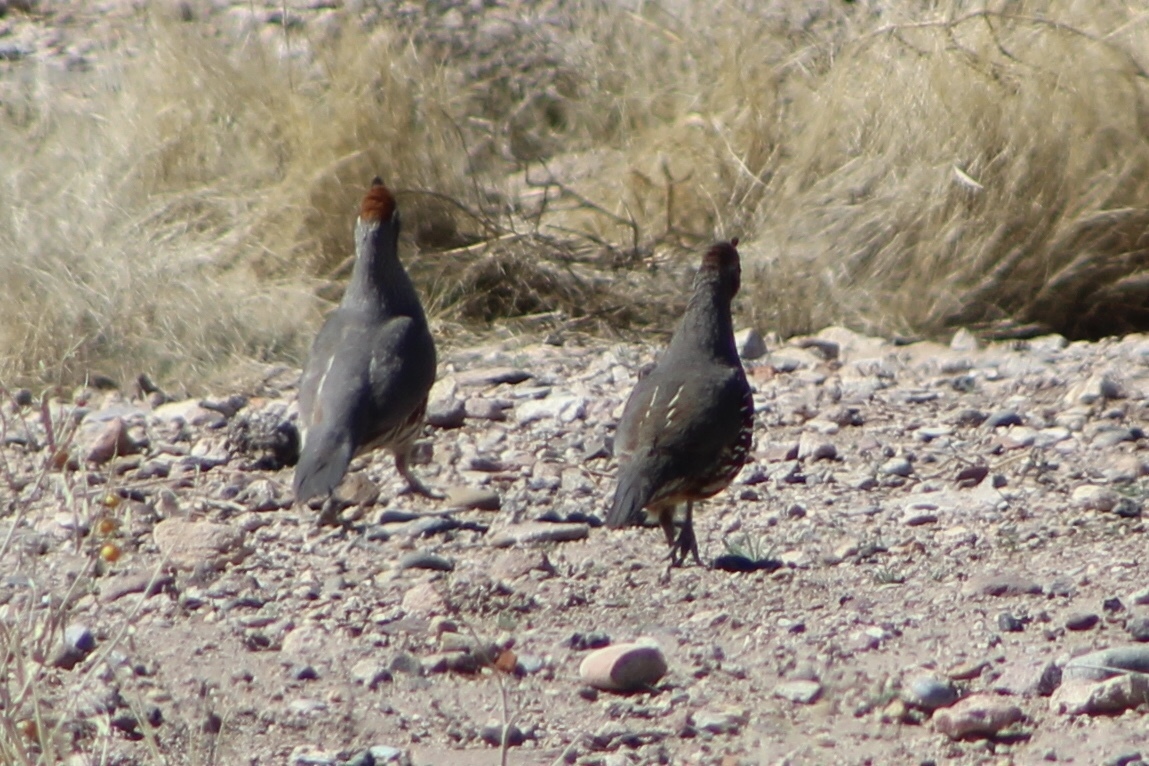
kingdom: Animalia
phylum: Chordata
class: Aves
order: Galliformes
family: Odontophoridae
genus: Callipepla
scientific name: Callipepla gambelii
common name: Gambel's quail
